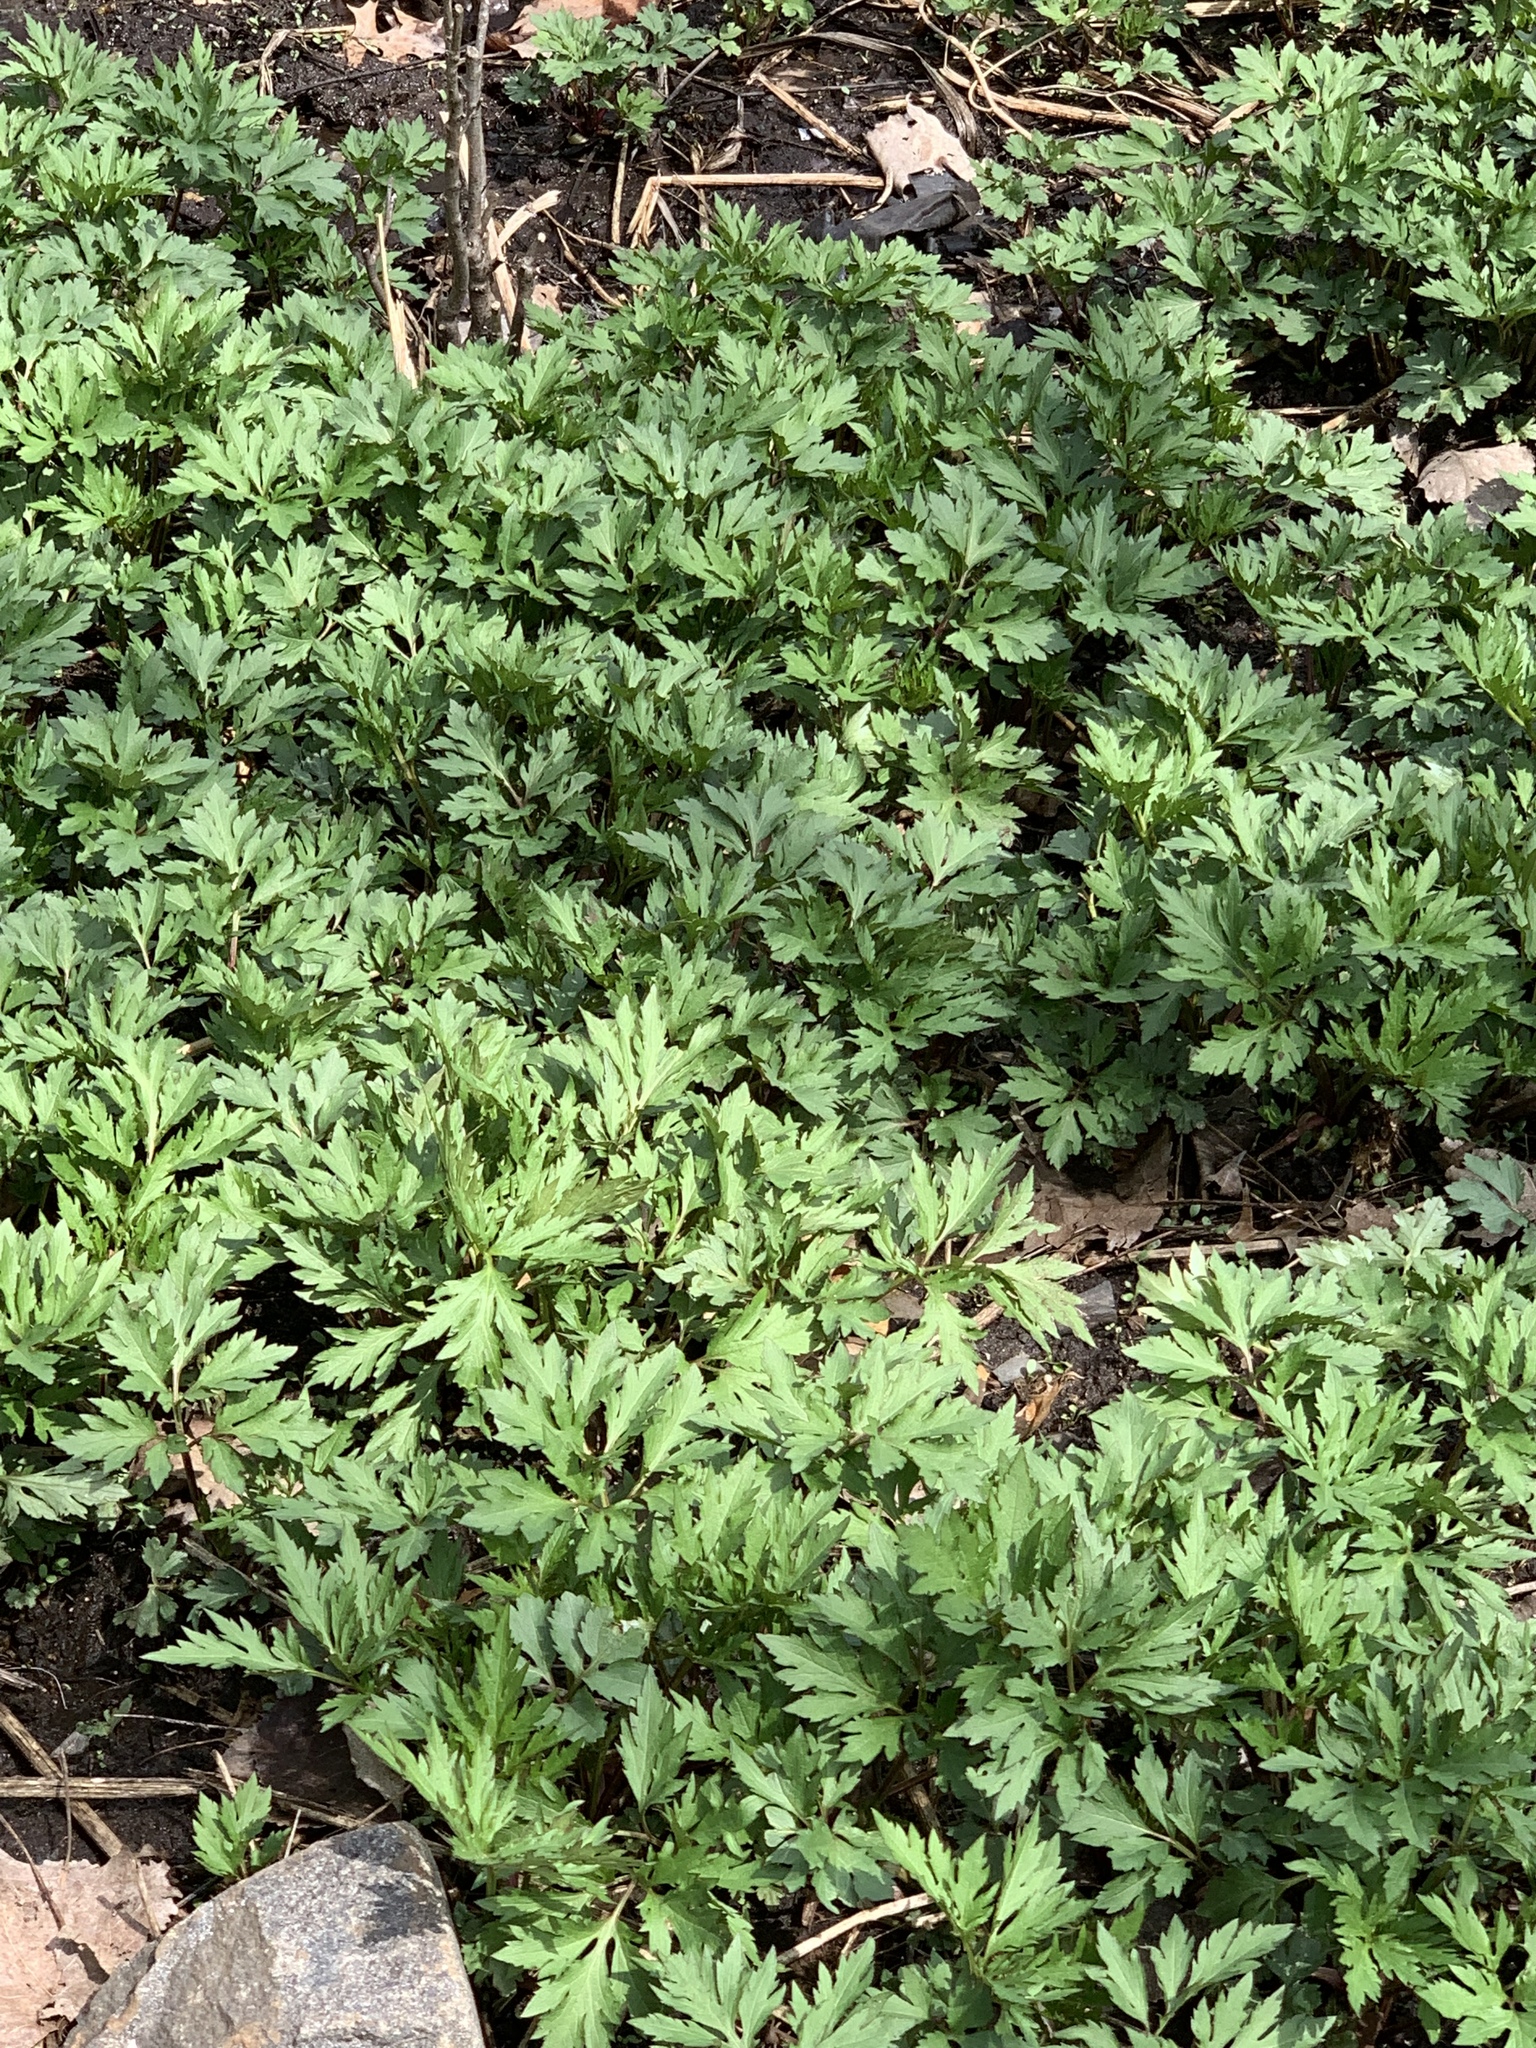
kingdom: Plantae
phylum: Tracheophyta
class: Magnoliopsida
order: Asterales
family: Asteraceae
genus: Rudbeckia
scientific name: Rudbeckia laciniata
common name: Coneflower
